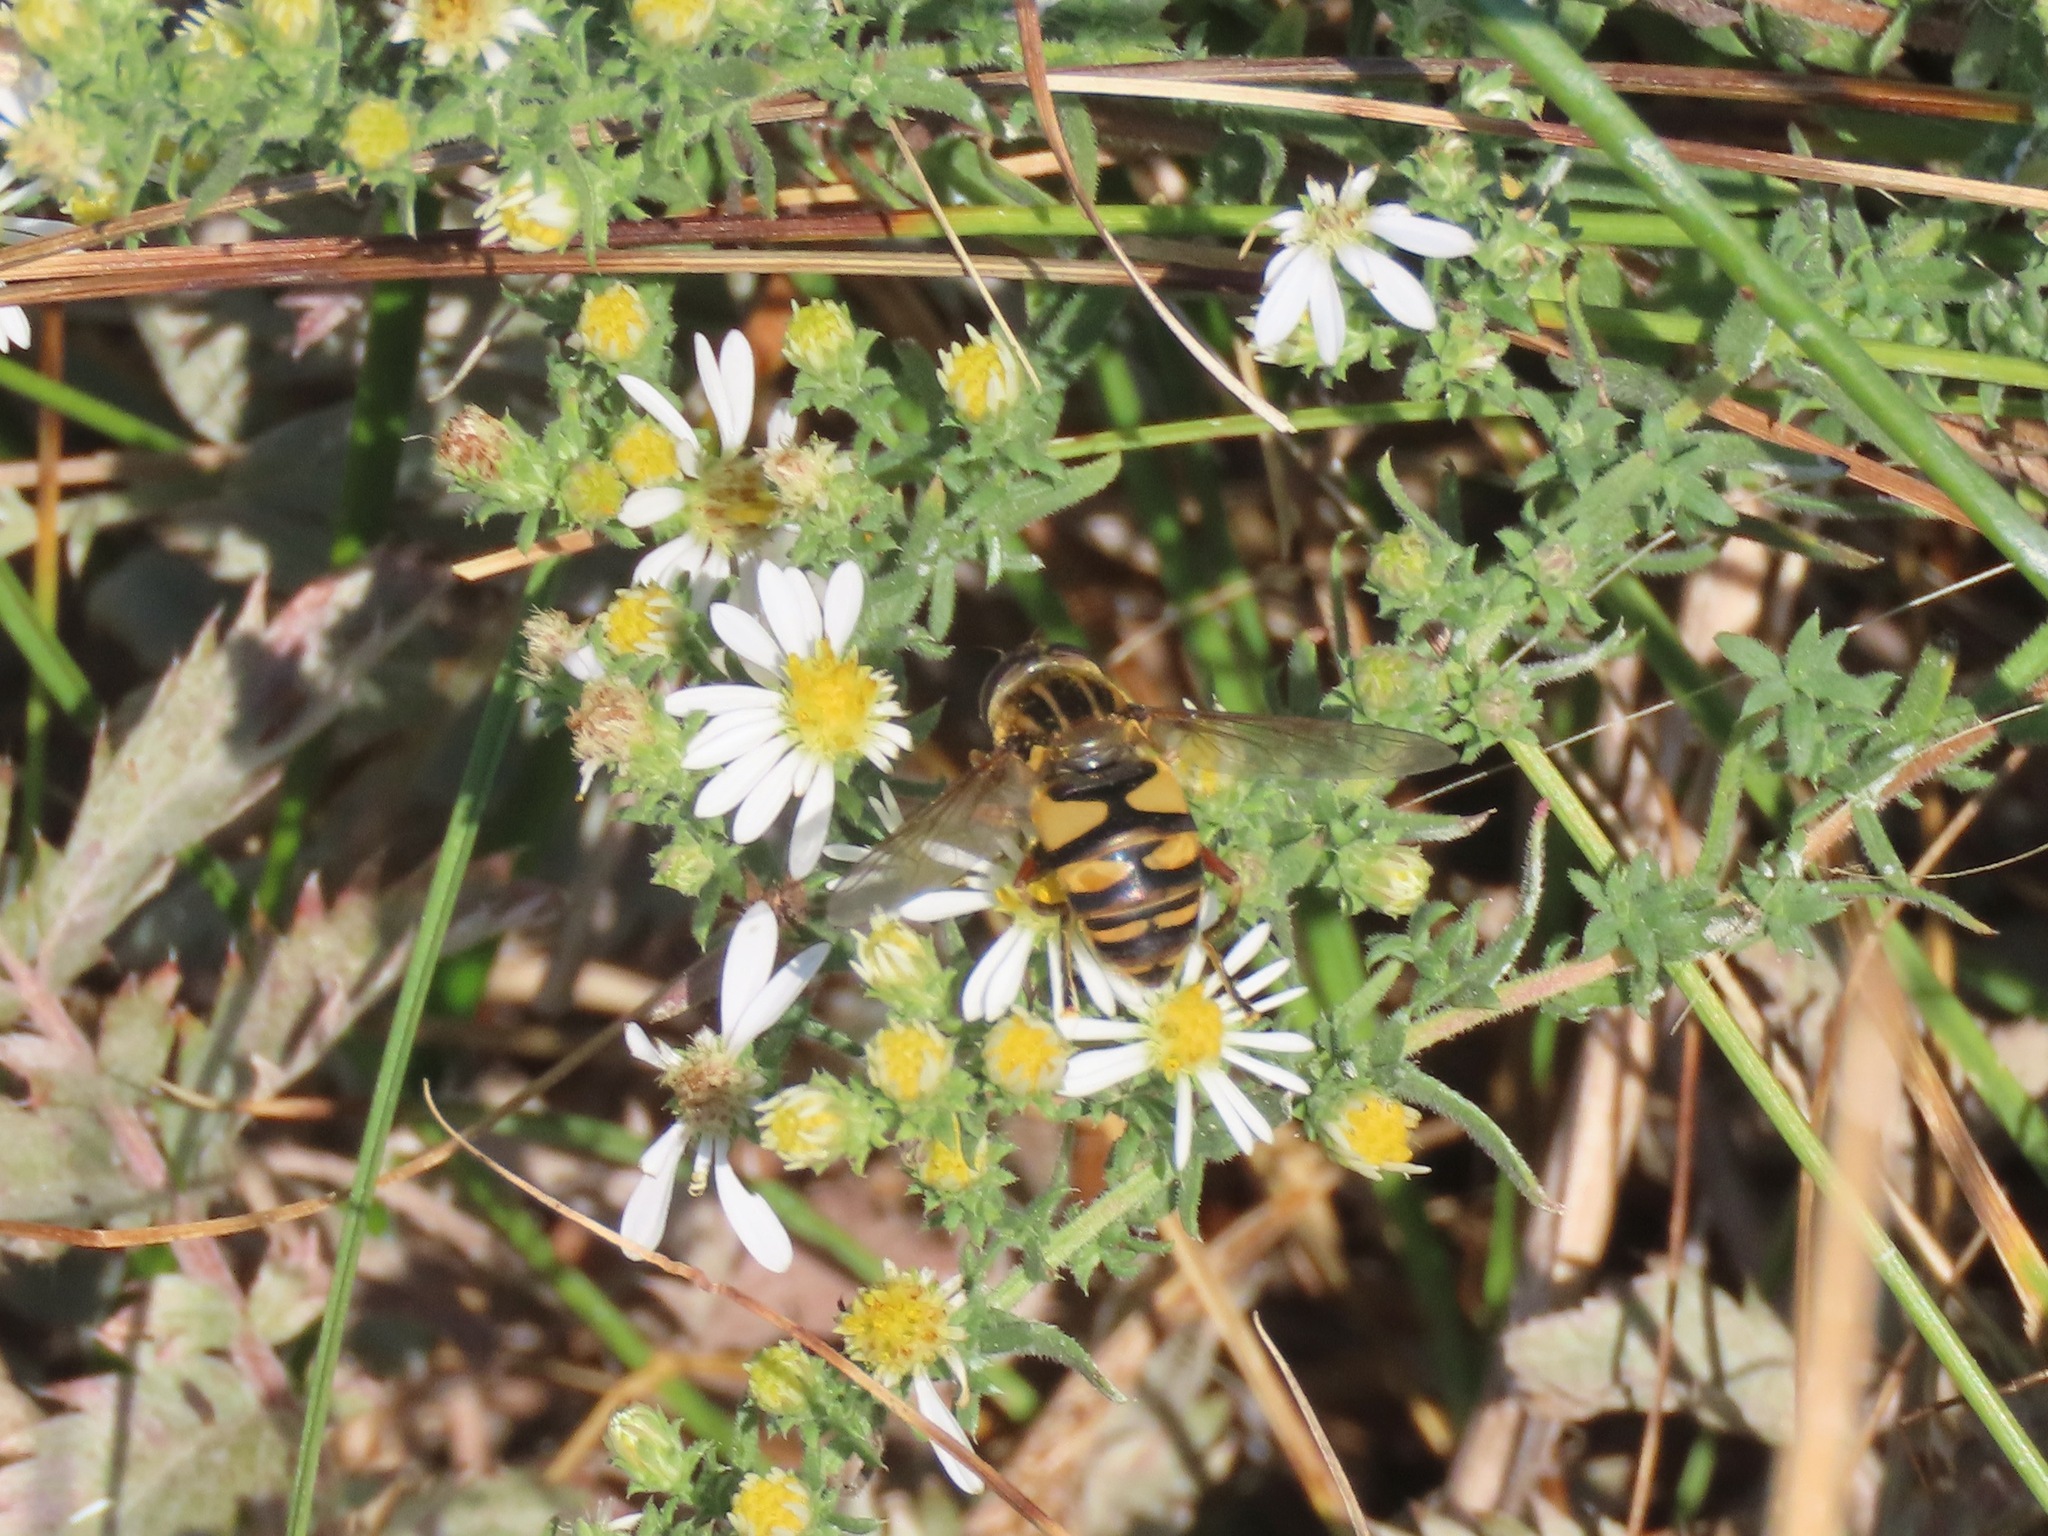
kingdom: Animalia
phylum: Arthropoda
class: Insecta
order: Diptera
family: Syrphidae
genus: Helophilus
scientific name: Helophilus fasciatus
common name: Narrow-headed marsh fly
